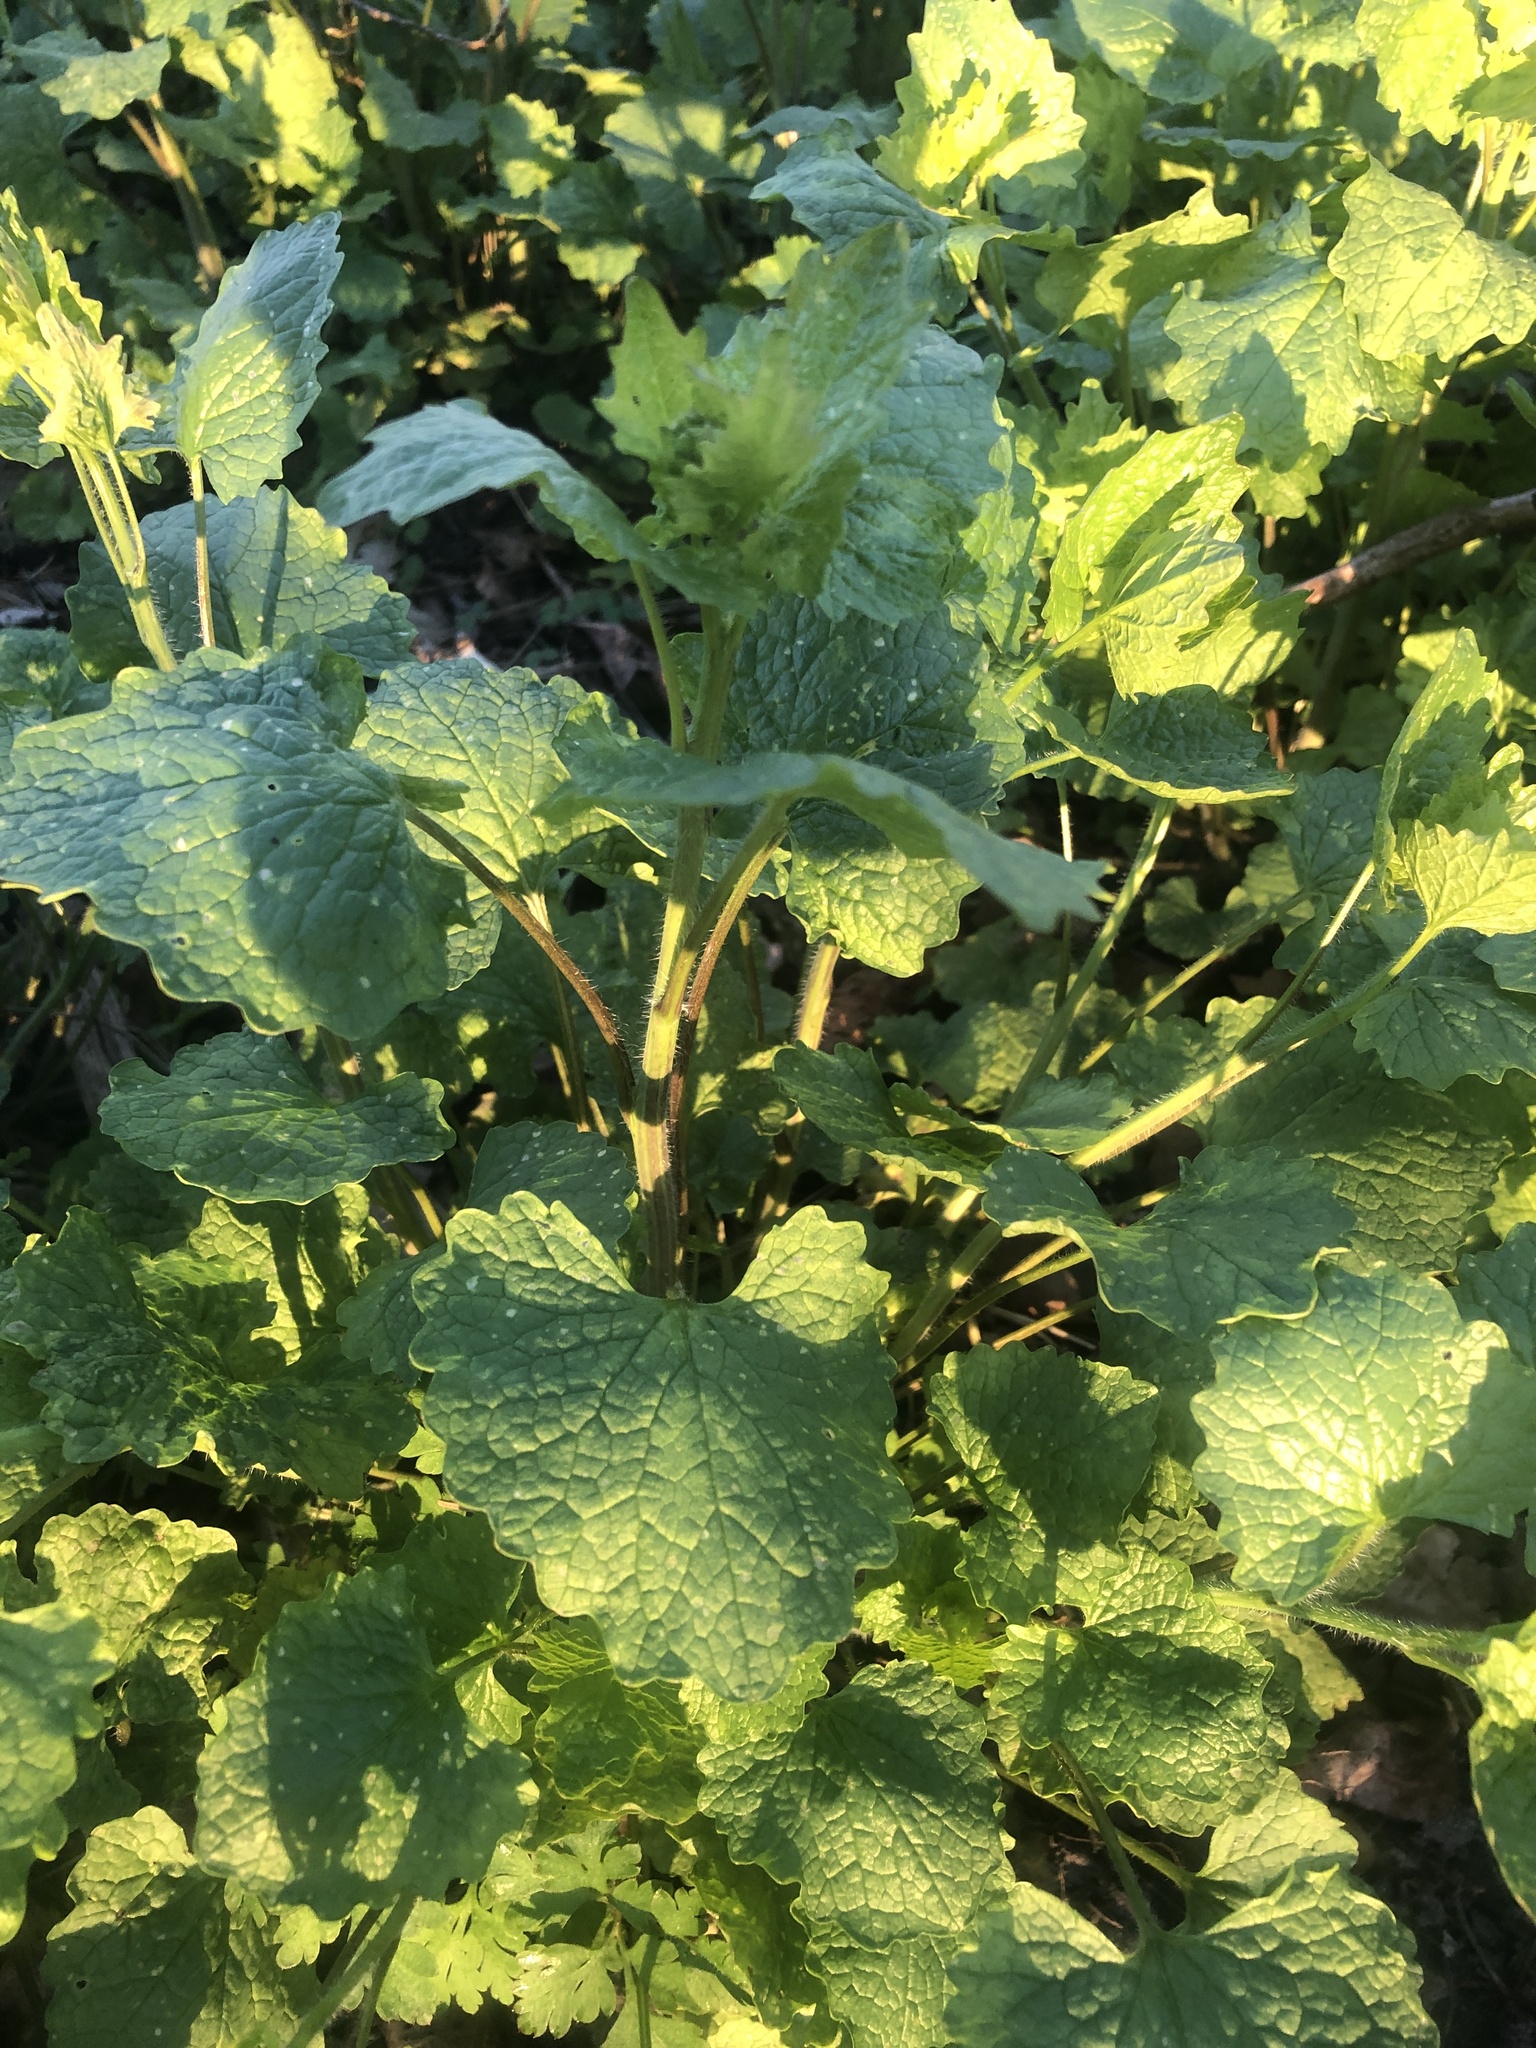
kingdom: Plantae
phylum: Tracheophyta
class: Magnoliopsida
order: Brassicales
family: Brassicaceae
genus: Alliaria
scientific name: Alliaria petiolata
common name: Garlic mustard
